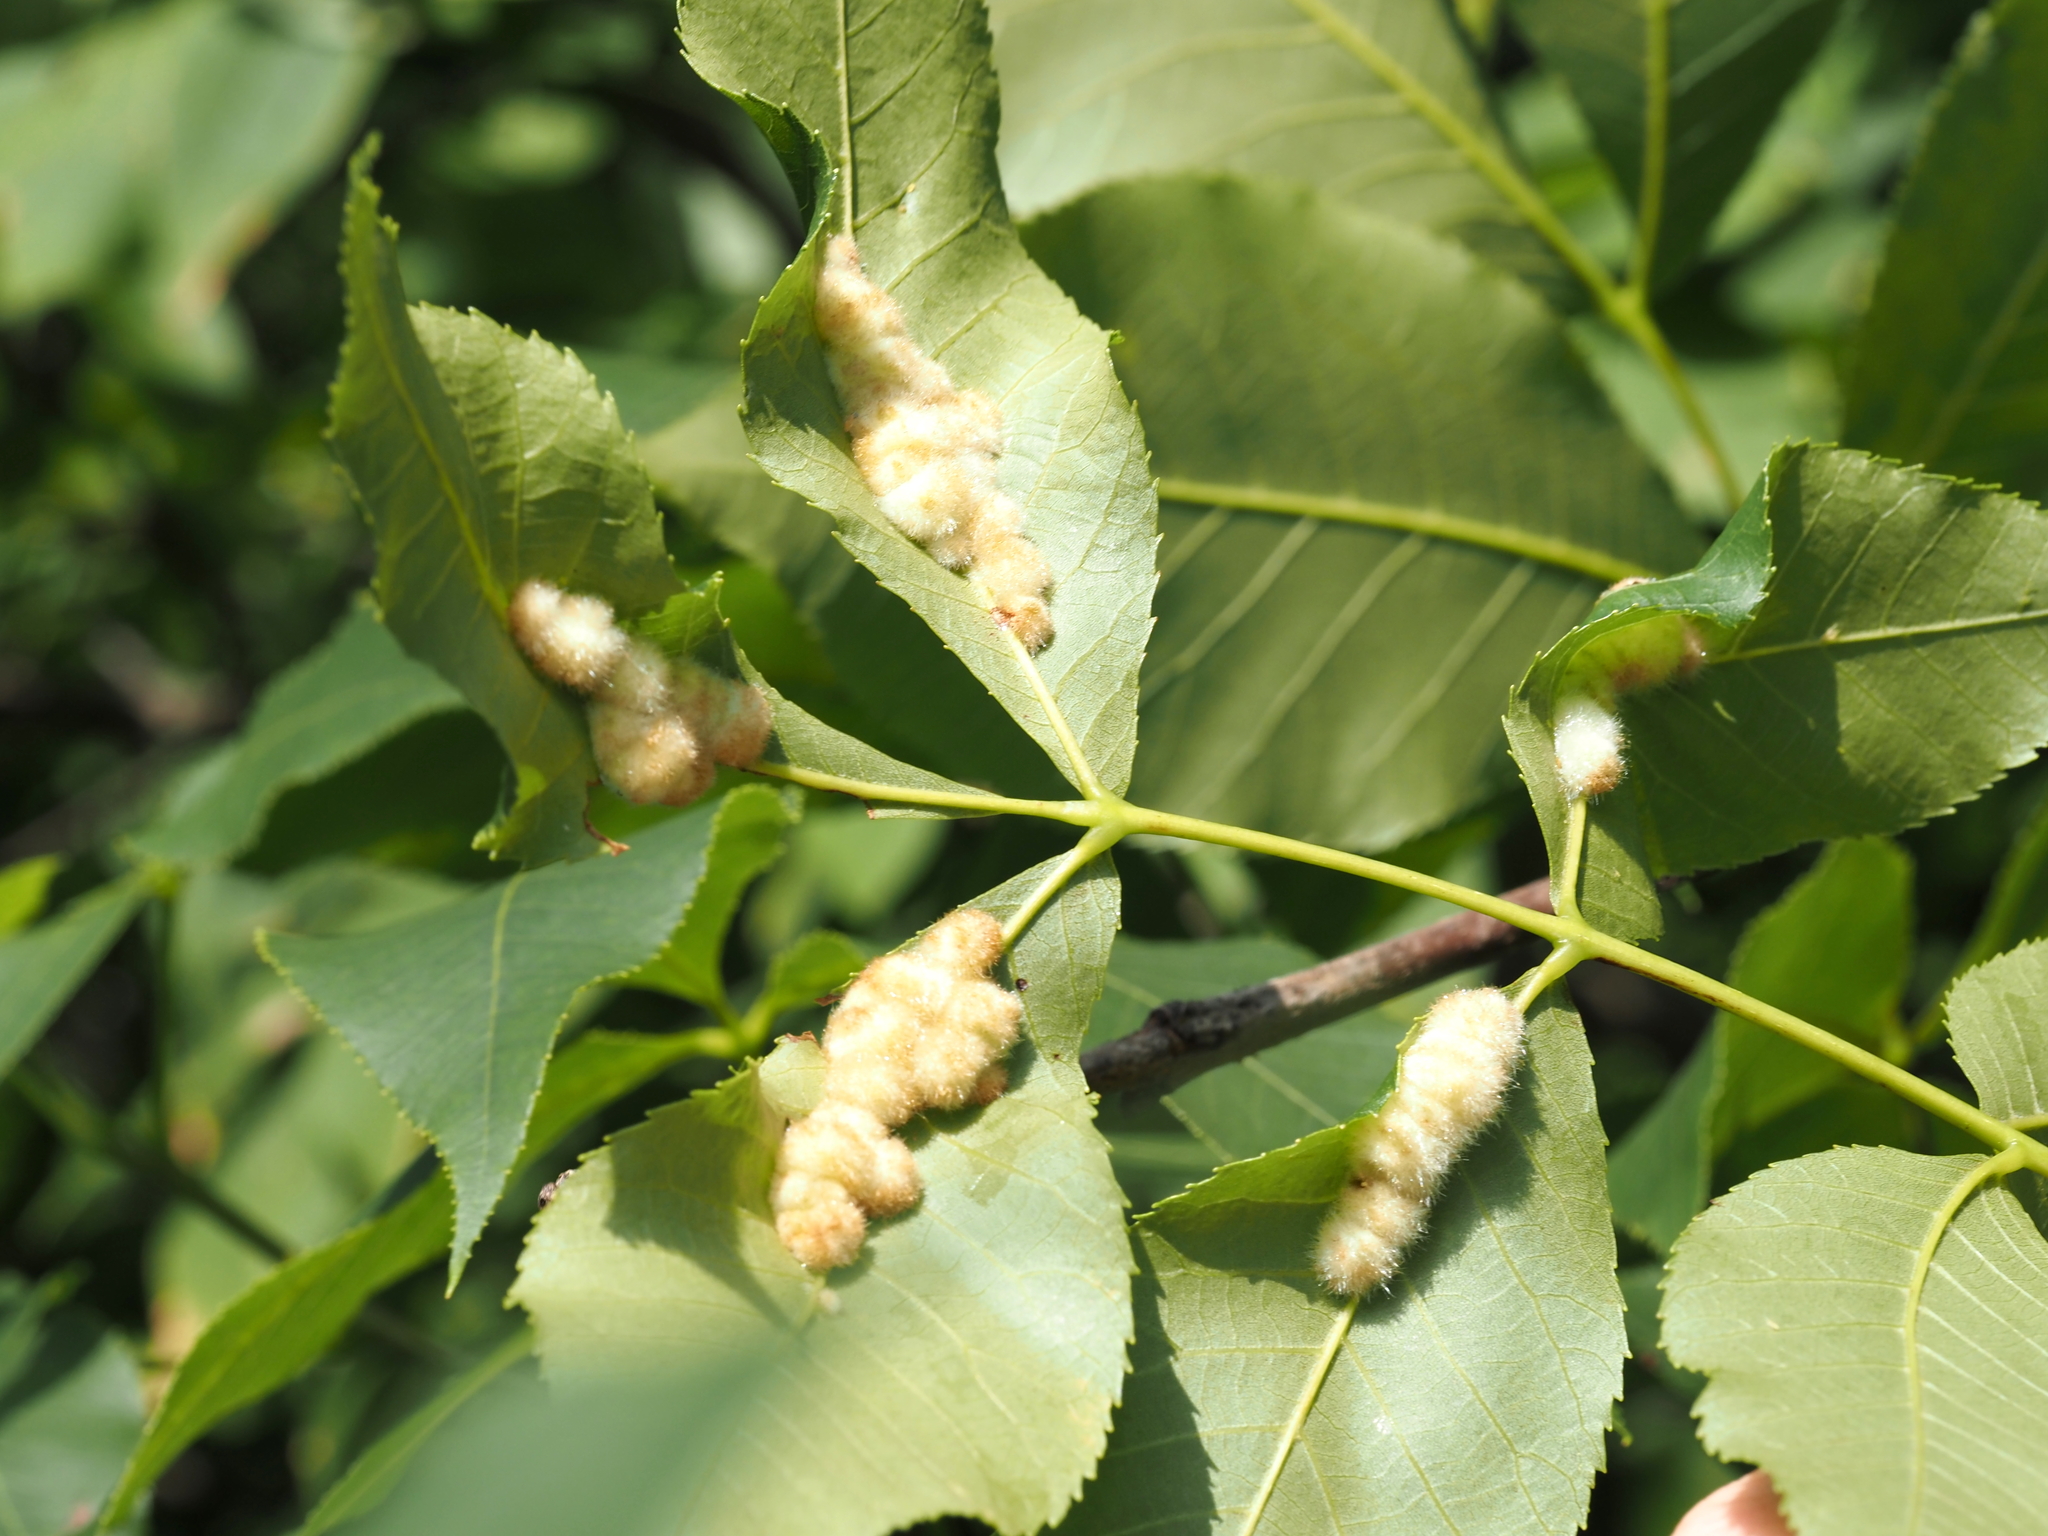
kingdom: Animalia
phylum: Arthropoda
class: Insecta
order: Diptera
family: Cecidomyiidae
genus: Caryomyia
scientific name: Caryomyia aggregata
